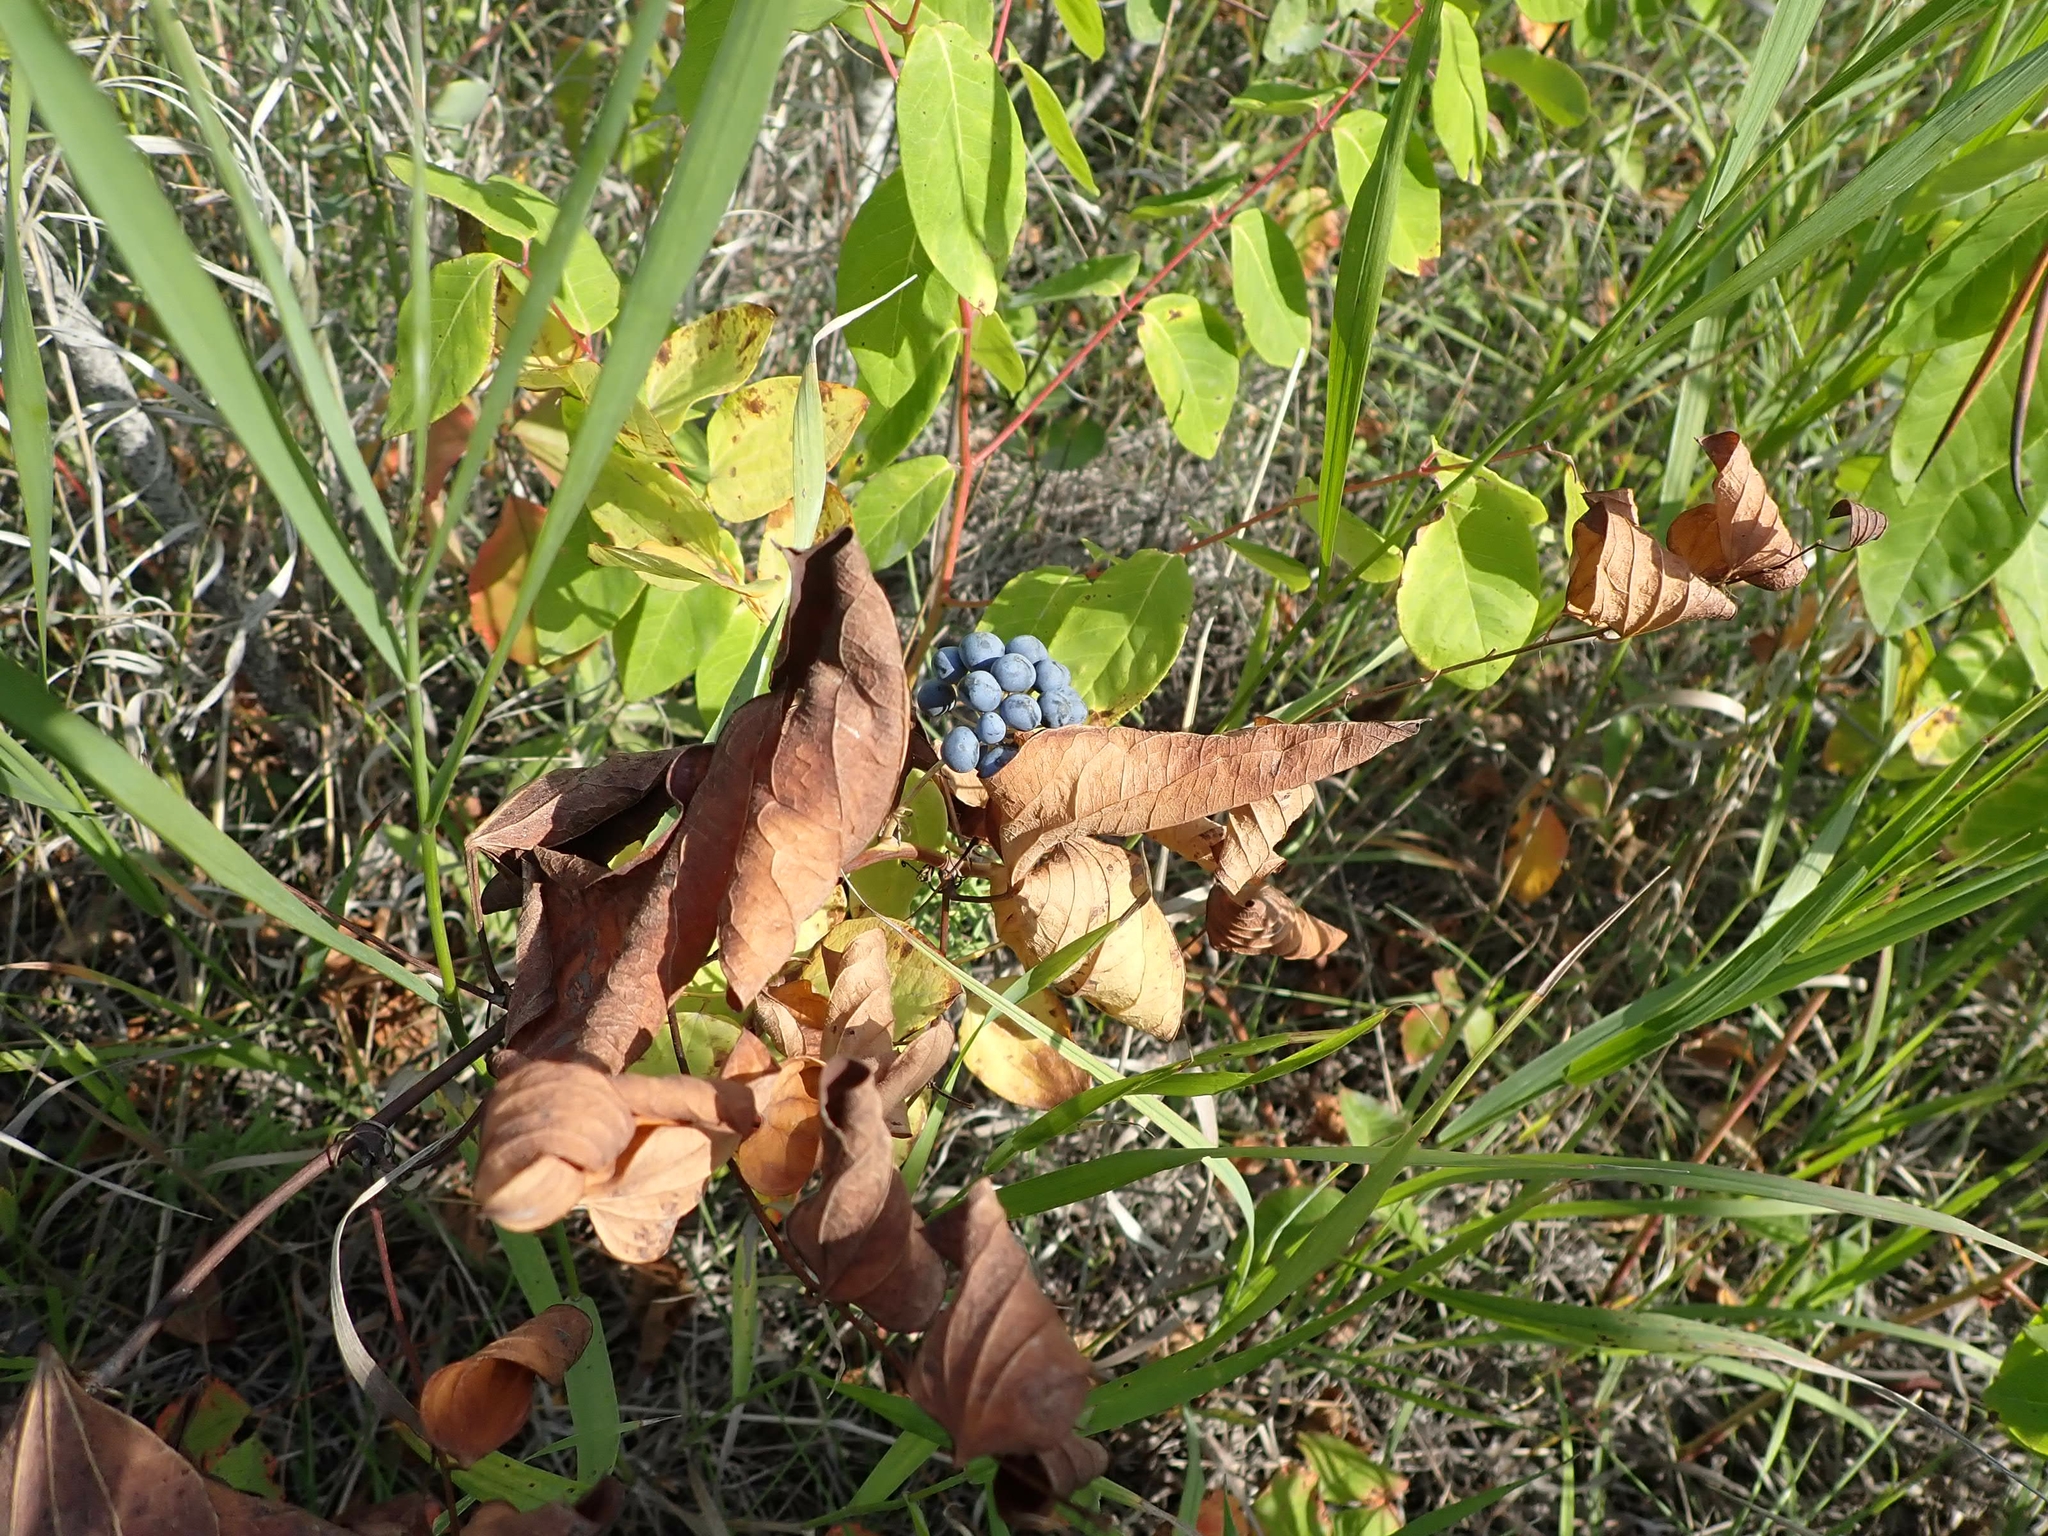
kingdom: Plantae
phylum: Tracheophyta
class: Liliopsida
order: Liliales
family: Smilacaceae
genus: Smilax
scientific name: Smilax lasioneura
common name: Blue ridge carrionflower
